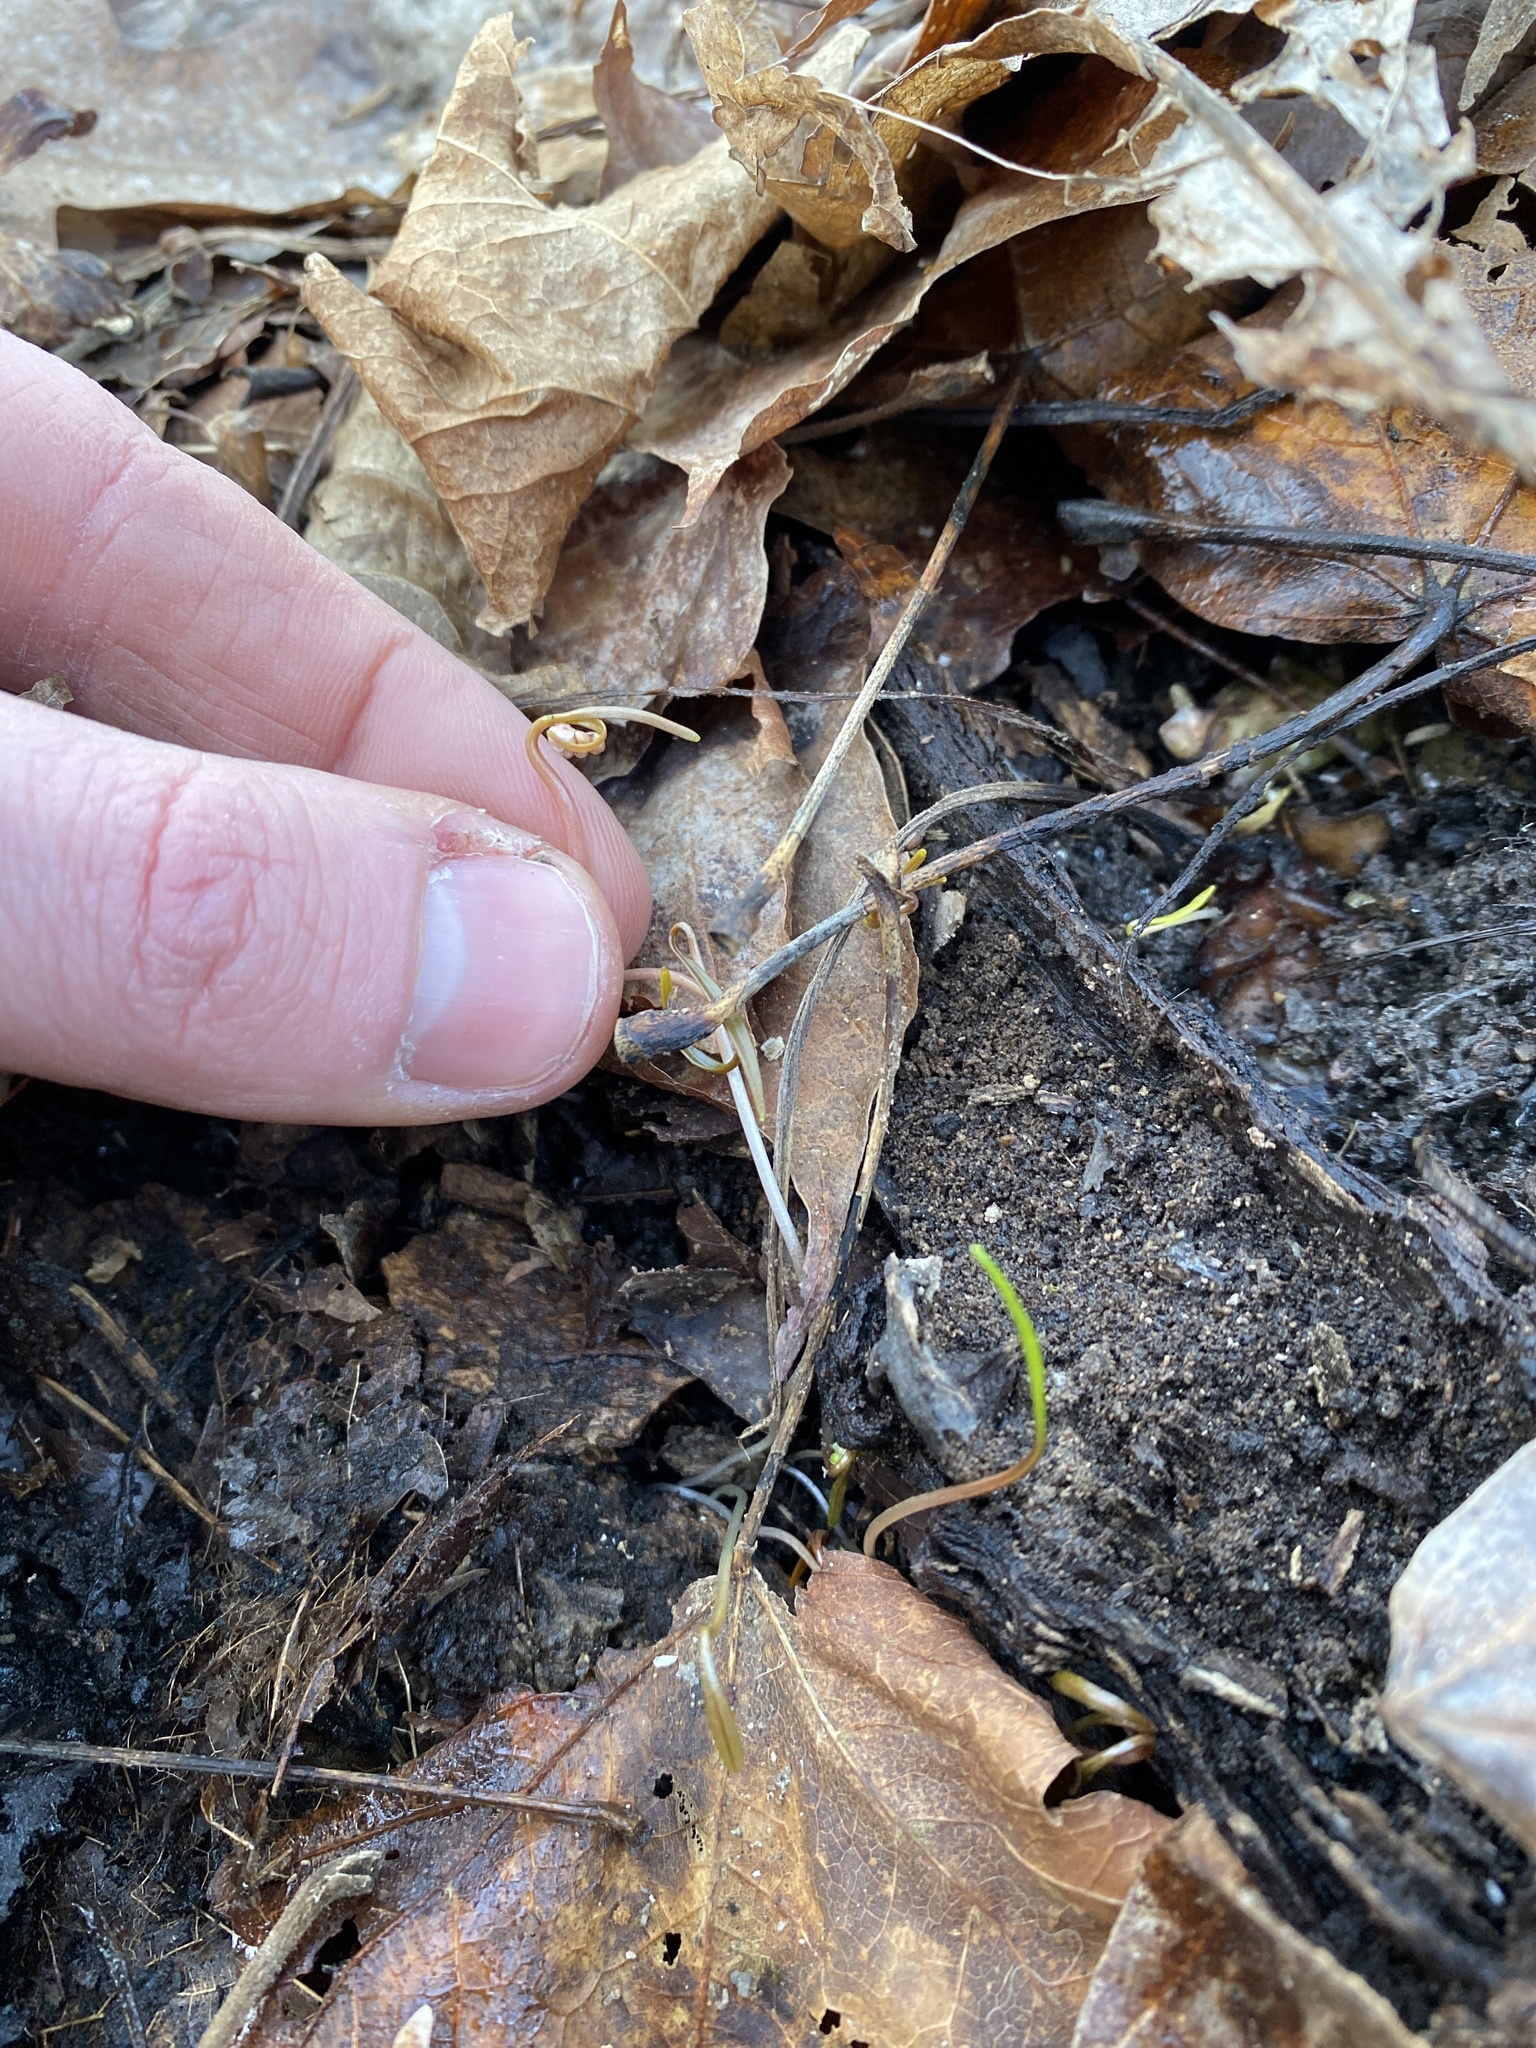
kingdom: Plantae
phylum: Tracheophyta
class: Magnoliopsida
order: Caryophyllales
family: Montiaceae
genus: Claytonia
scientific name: Claytonia virginica
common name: Virginia springbeauty
